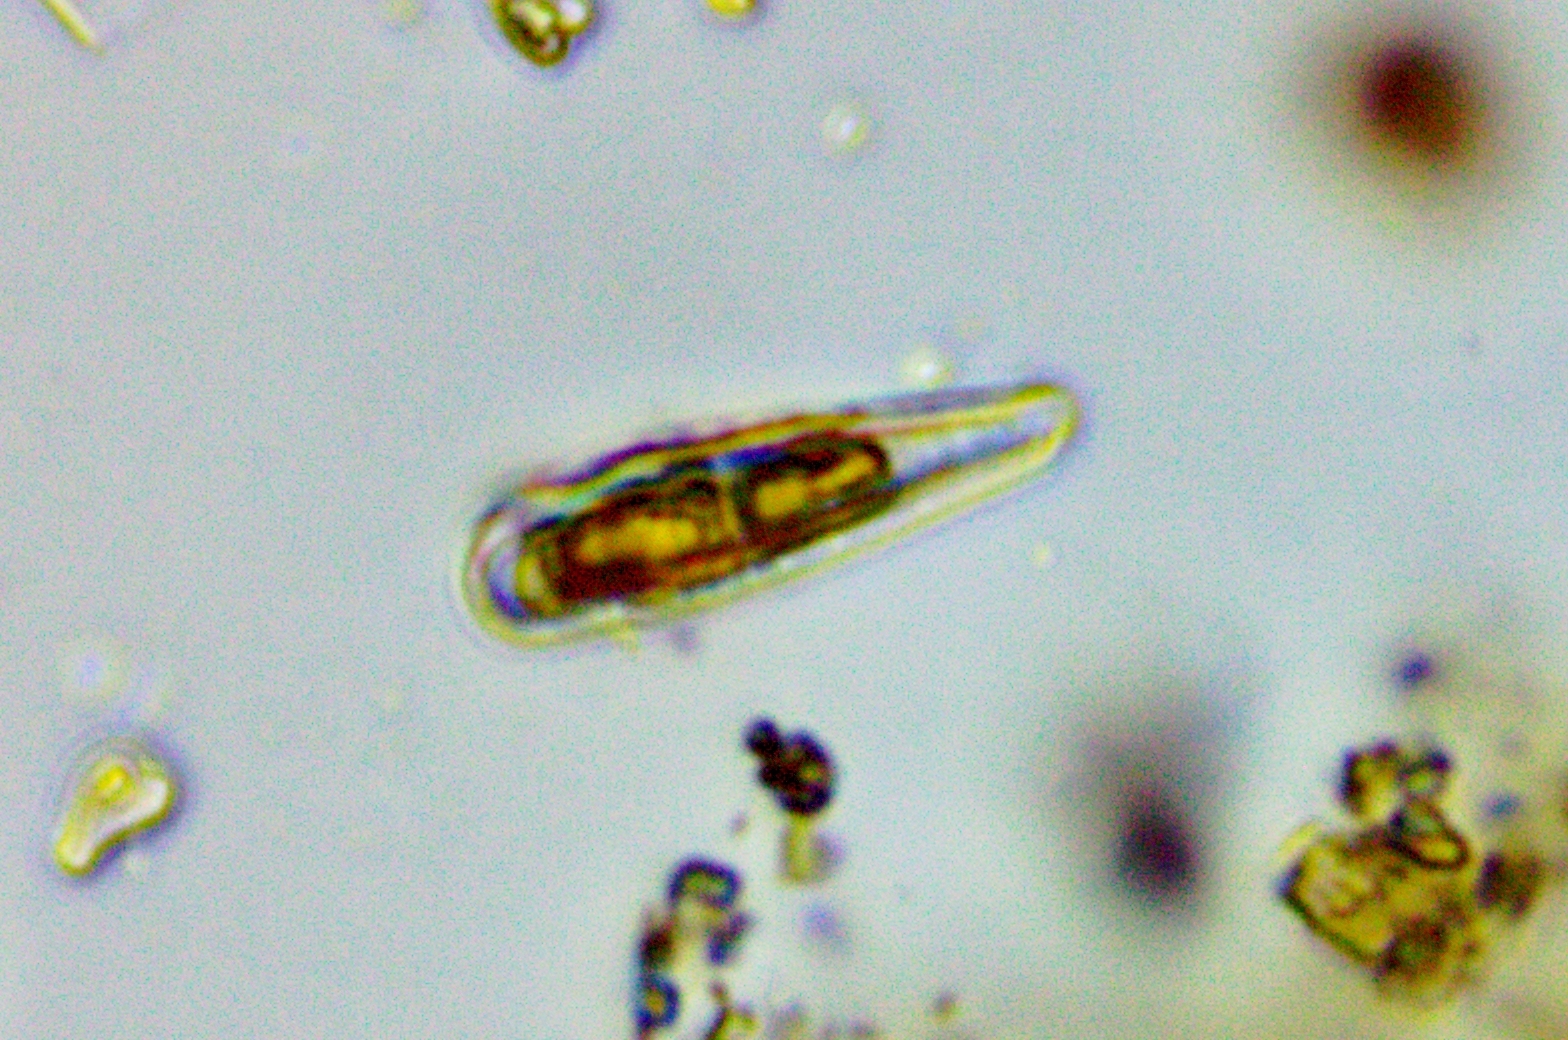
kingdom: Chromista
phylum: Ochrophyta
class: Bacillariophyceae
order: Fragilariales
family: Fragilariaceae
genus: Meridion
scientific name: Meridion constrictum
